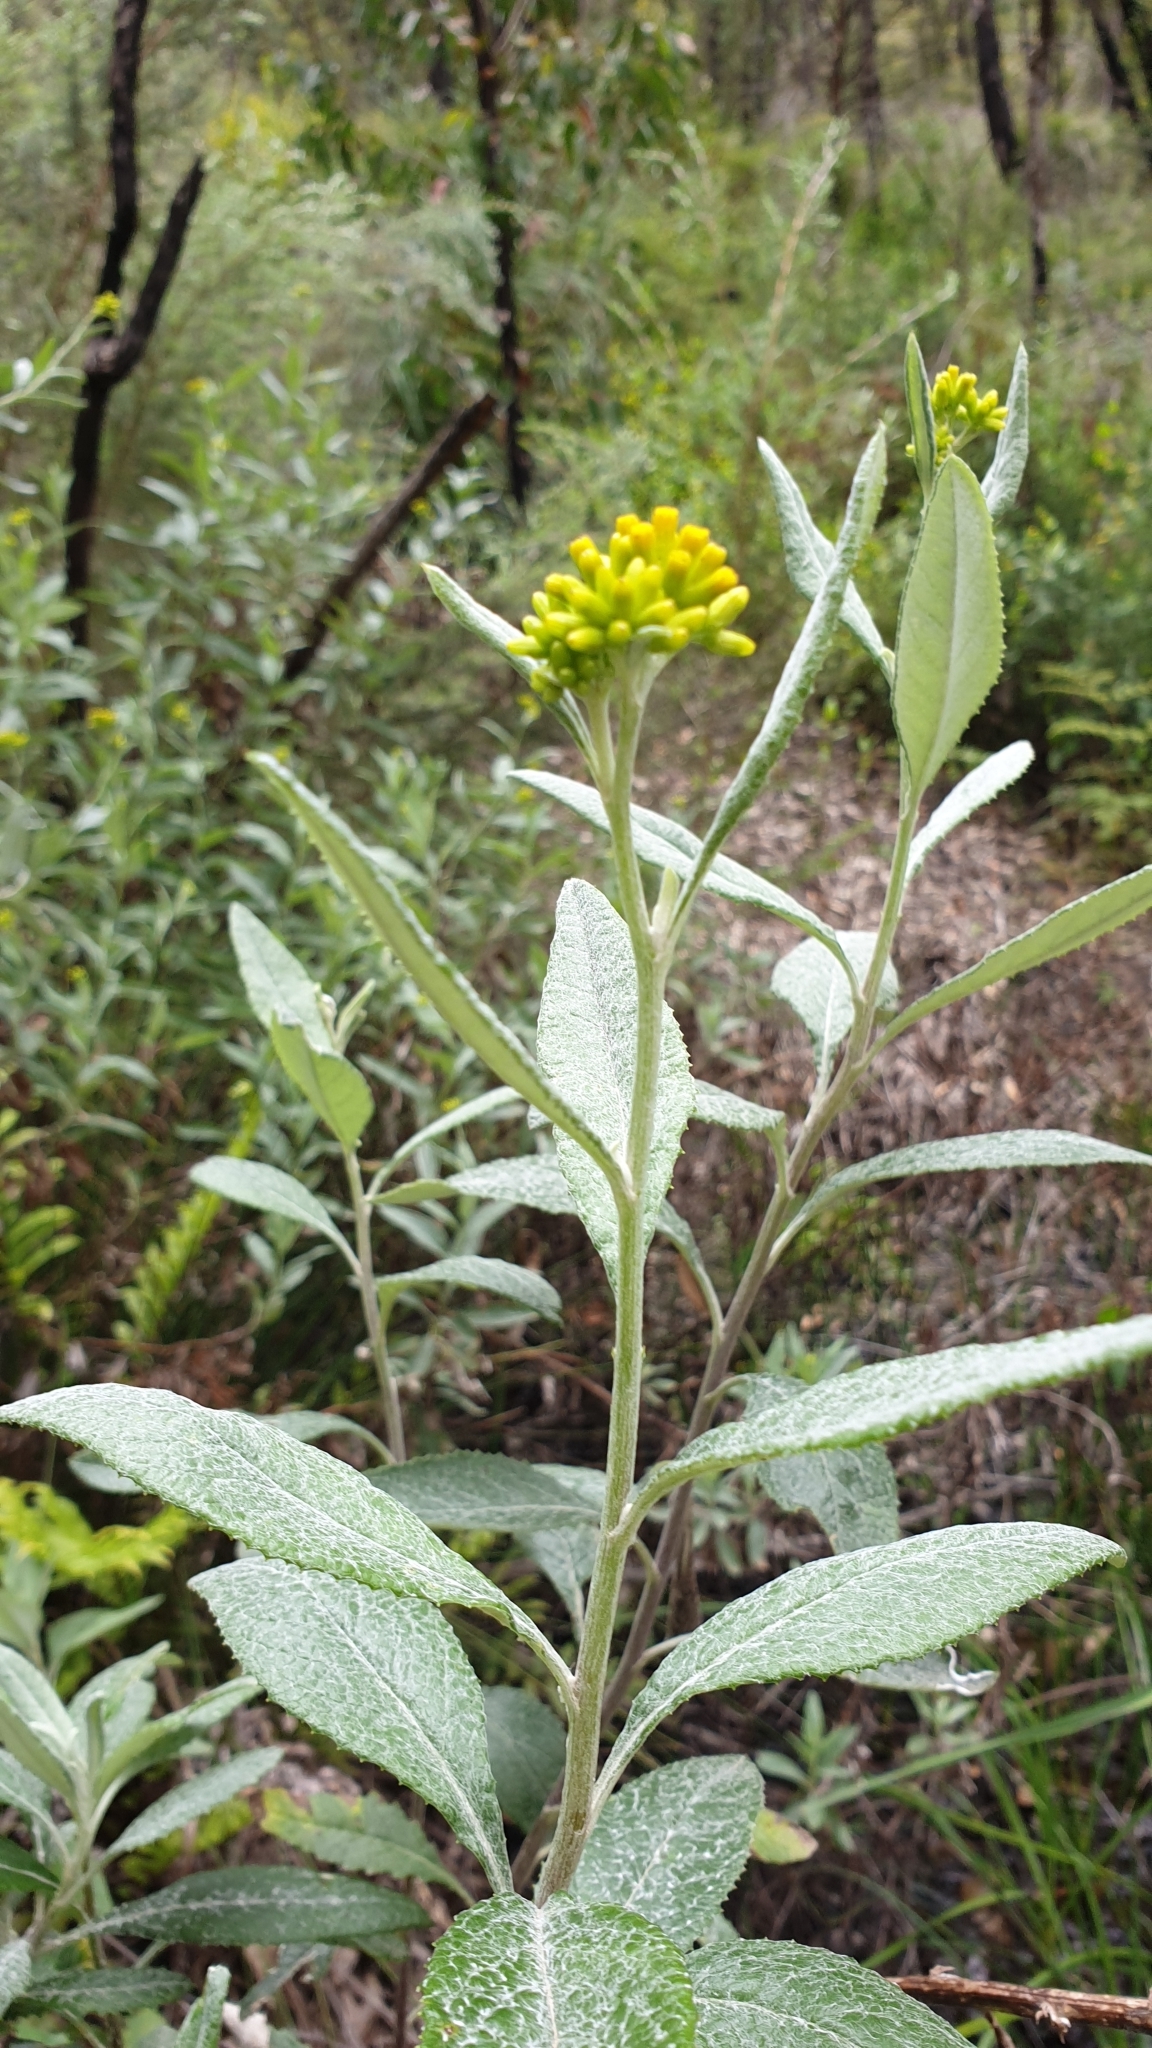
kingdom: Plantae
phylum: Tracheophyta
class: Magnoliopsida
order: Asterales
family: Asteraceae
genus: Senecio
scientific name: Senecio hypoleucus
